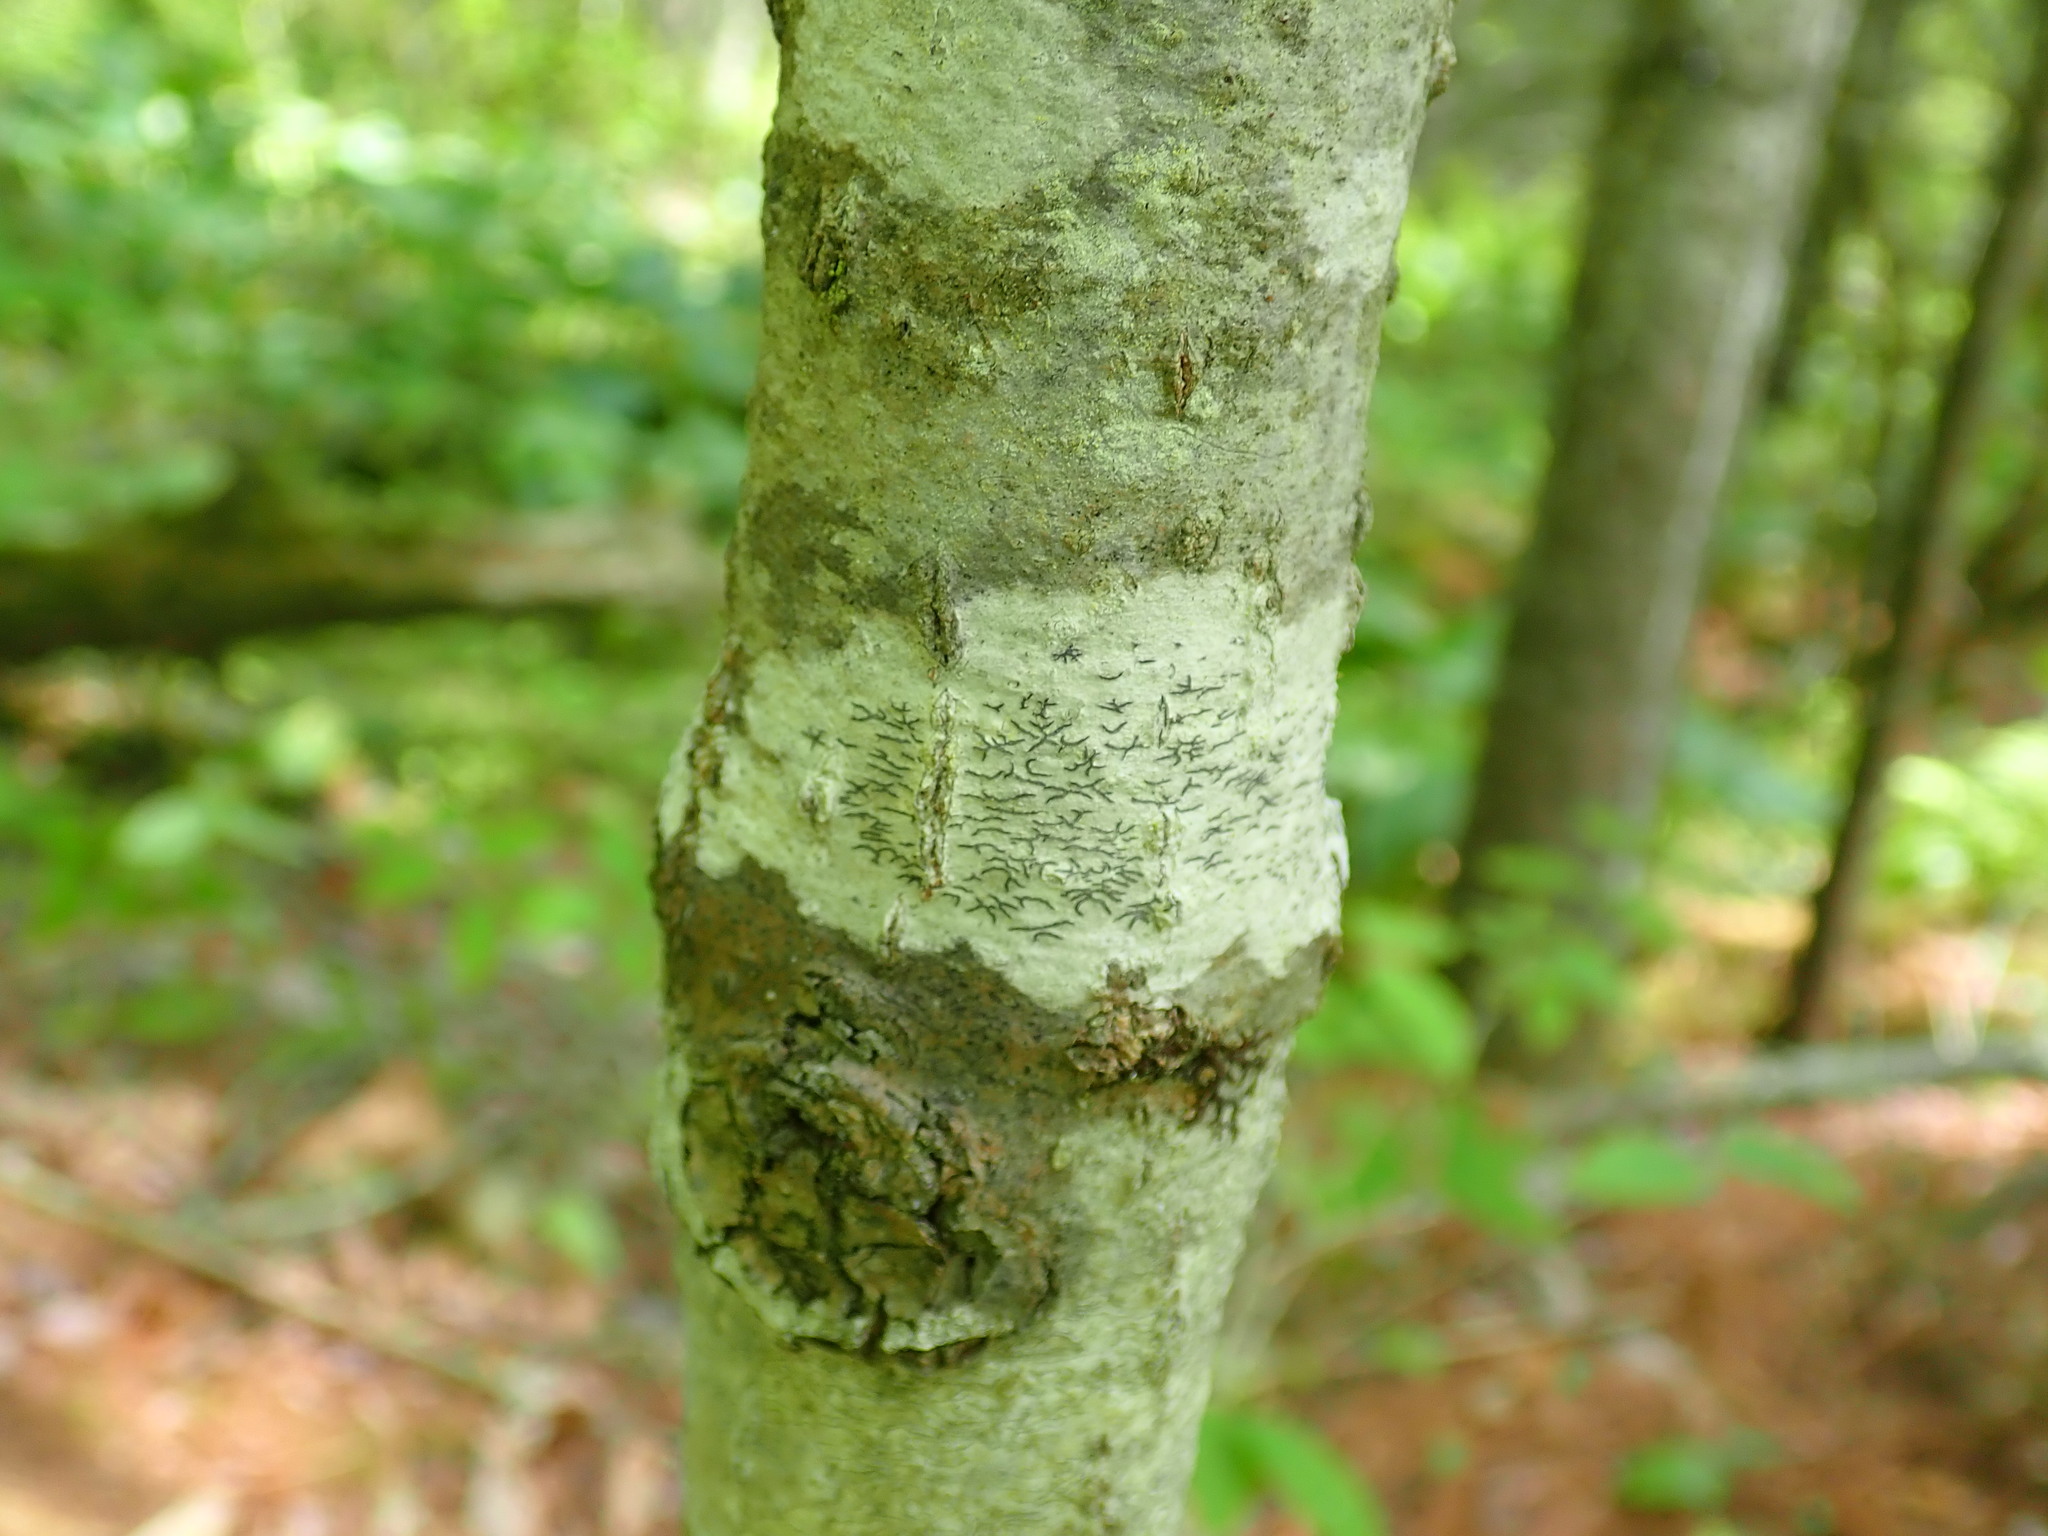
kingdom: Fungi
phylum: Ascomycota
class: Lecanoromycetes
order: Ostropales
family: Graphidaceae
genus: Graphis
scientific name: Graphis scripta
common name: Script lichen
